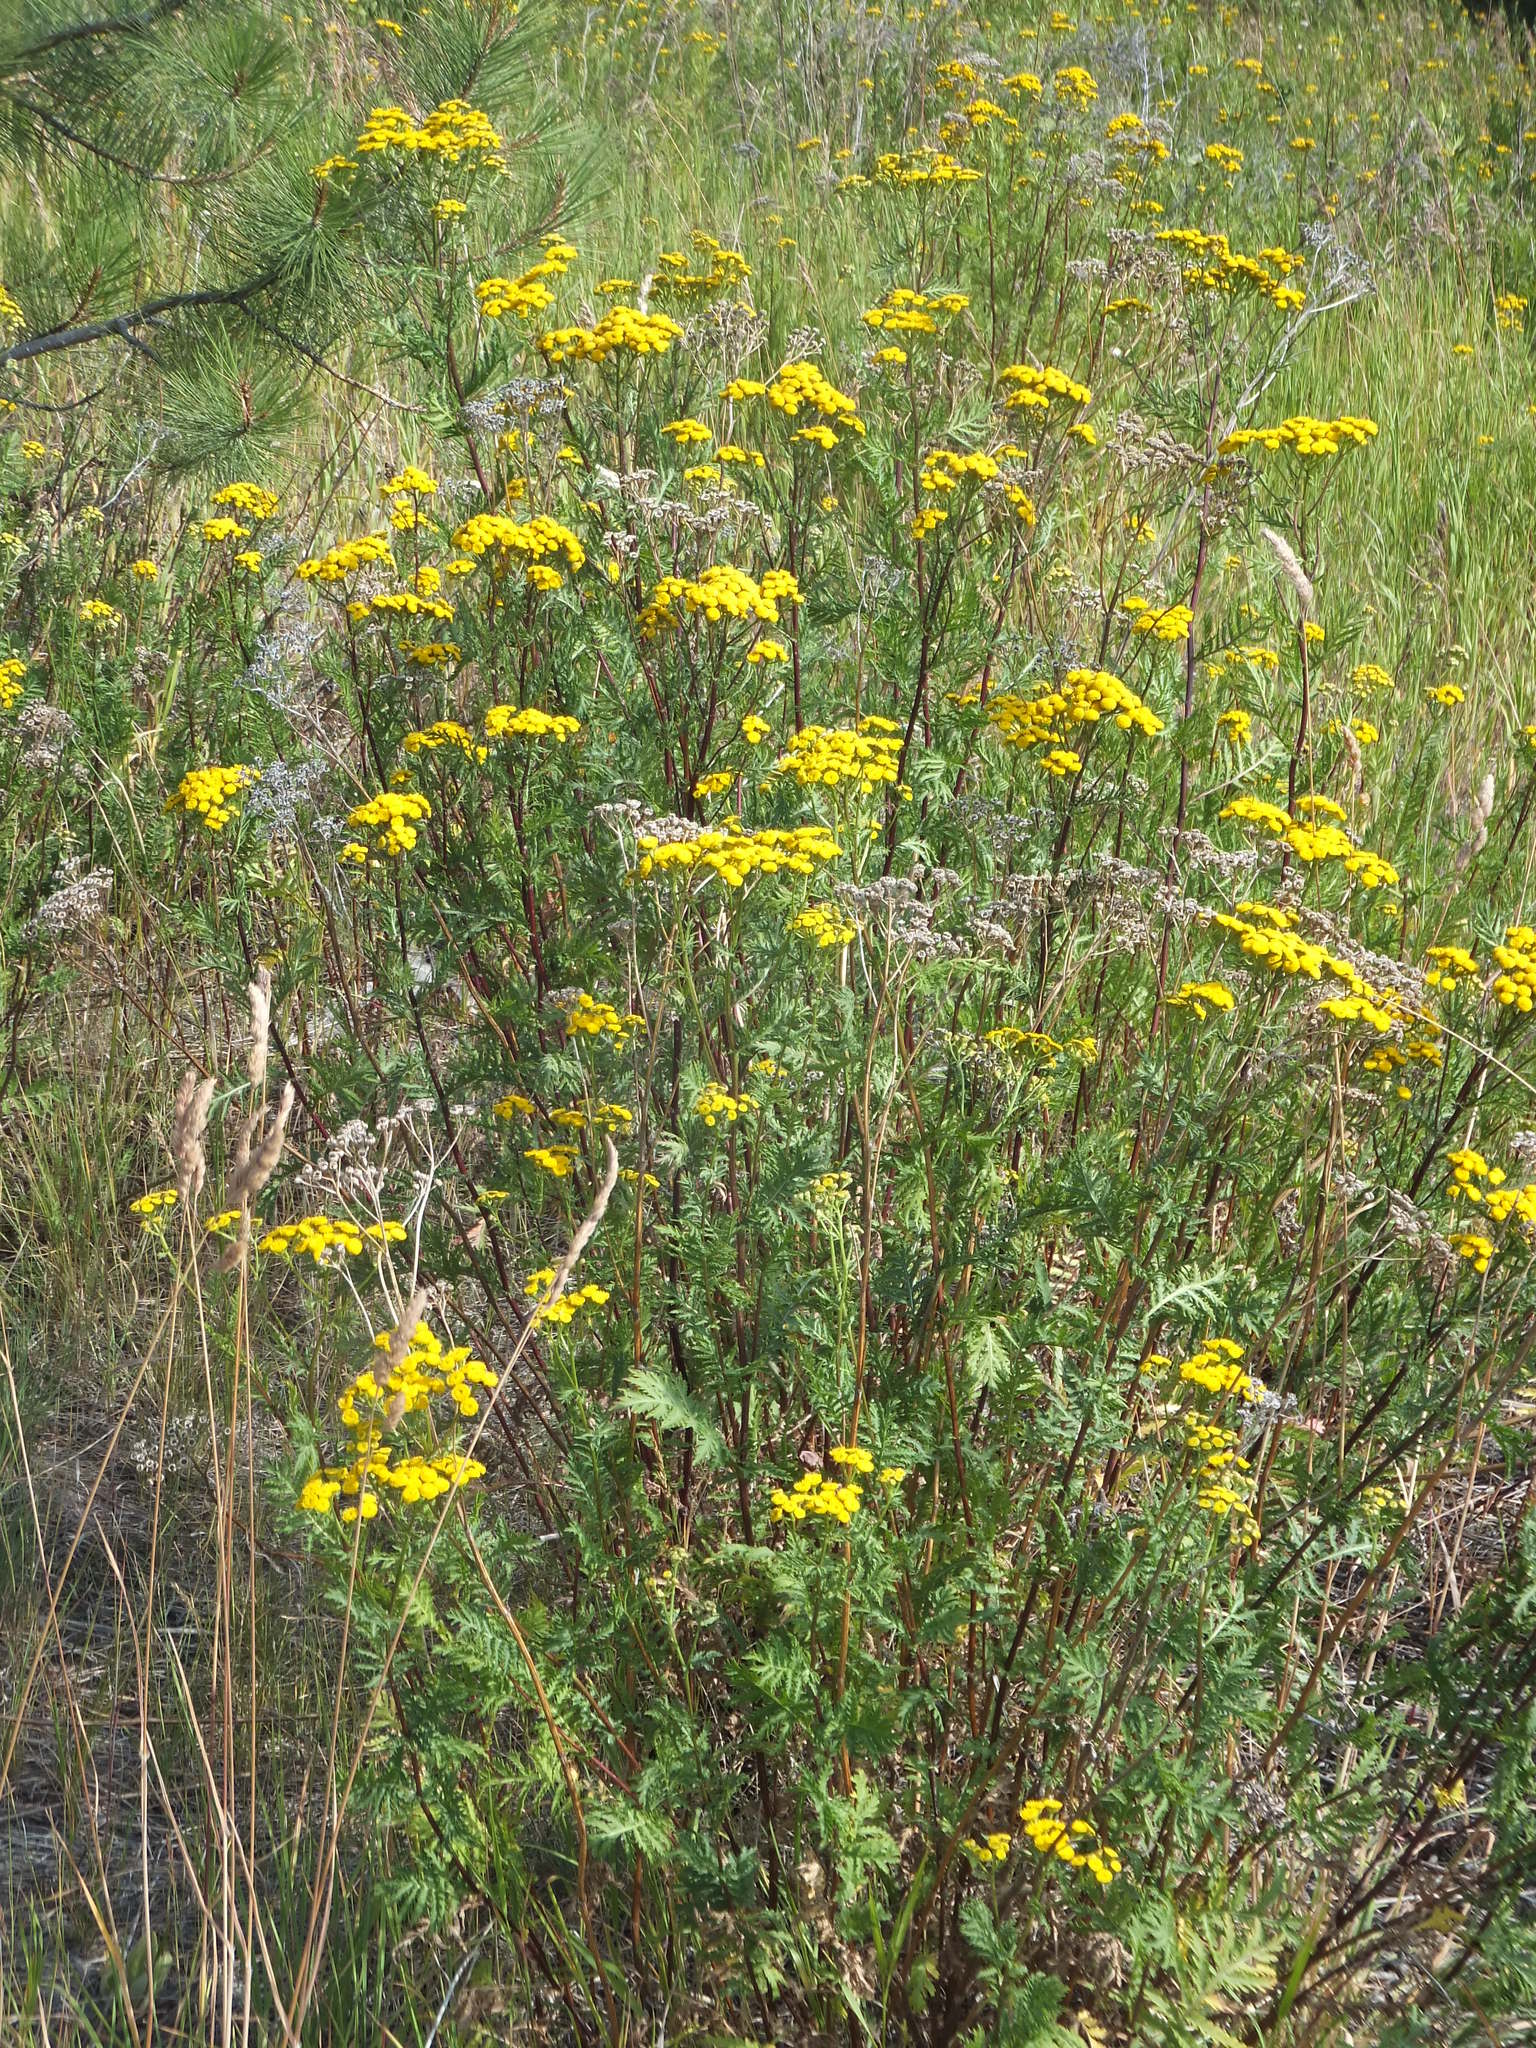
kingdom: Plantae
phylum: Tracheophyta
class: Magnoliopsida
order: Asterales
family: Asteraceae
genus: Tanacetum
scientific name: Tanacetum vulgare
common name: Common tansy
